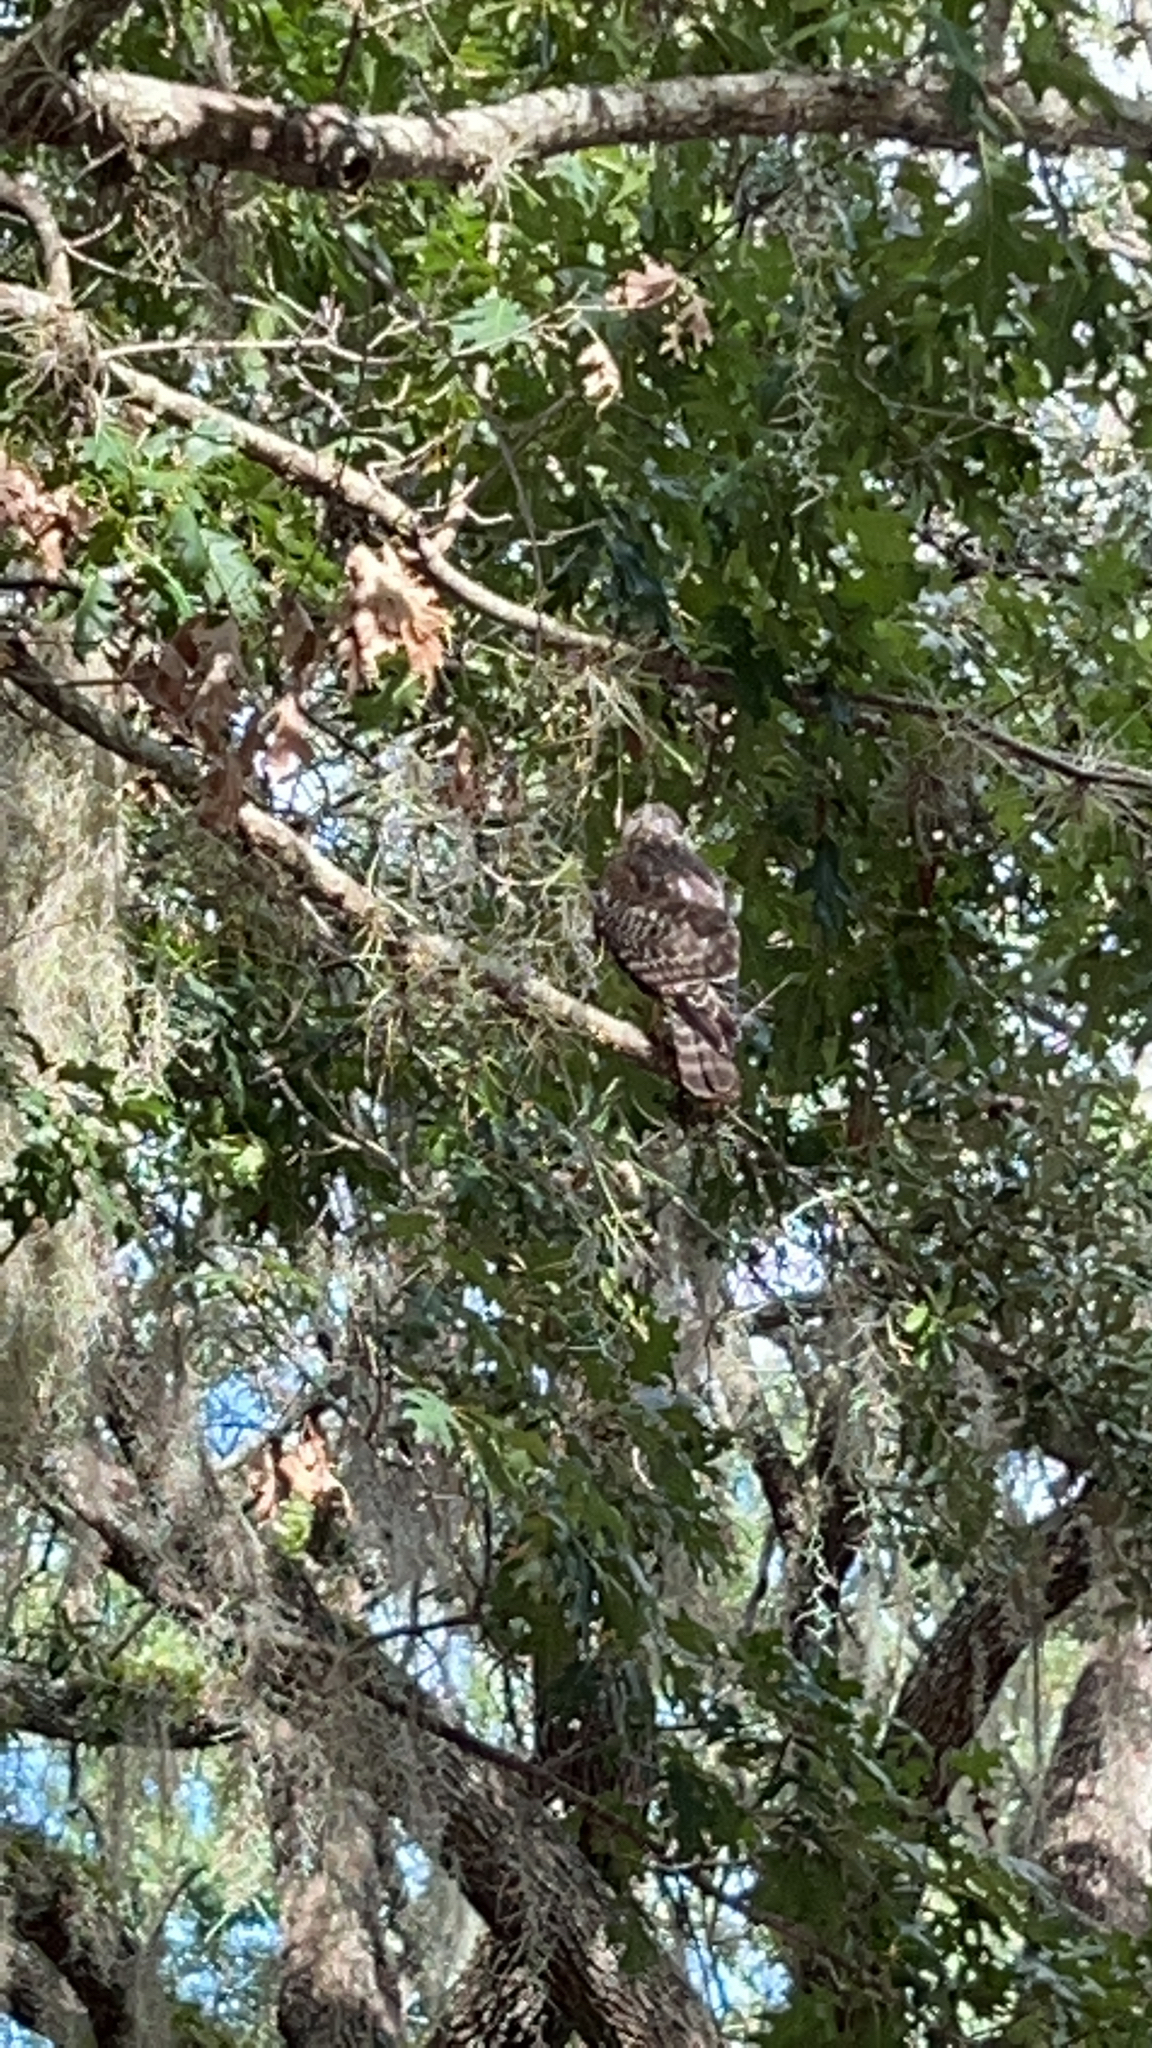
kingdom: Animalia
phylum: Chordata
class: Aves
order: Accipitriformes
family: Accipitridae
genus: Buteo
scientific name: Buteo lineatus
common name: Red-shouldered hawk
